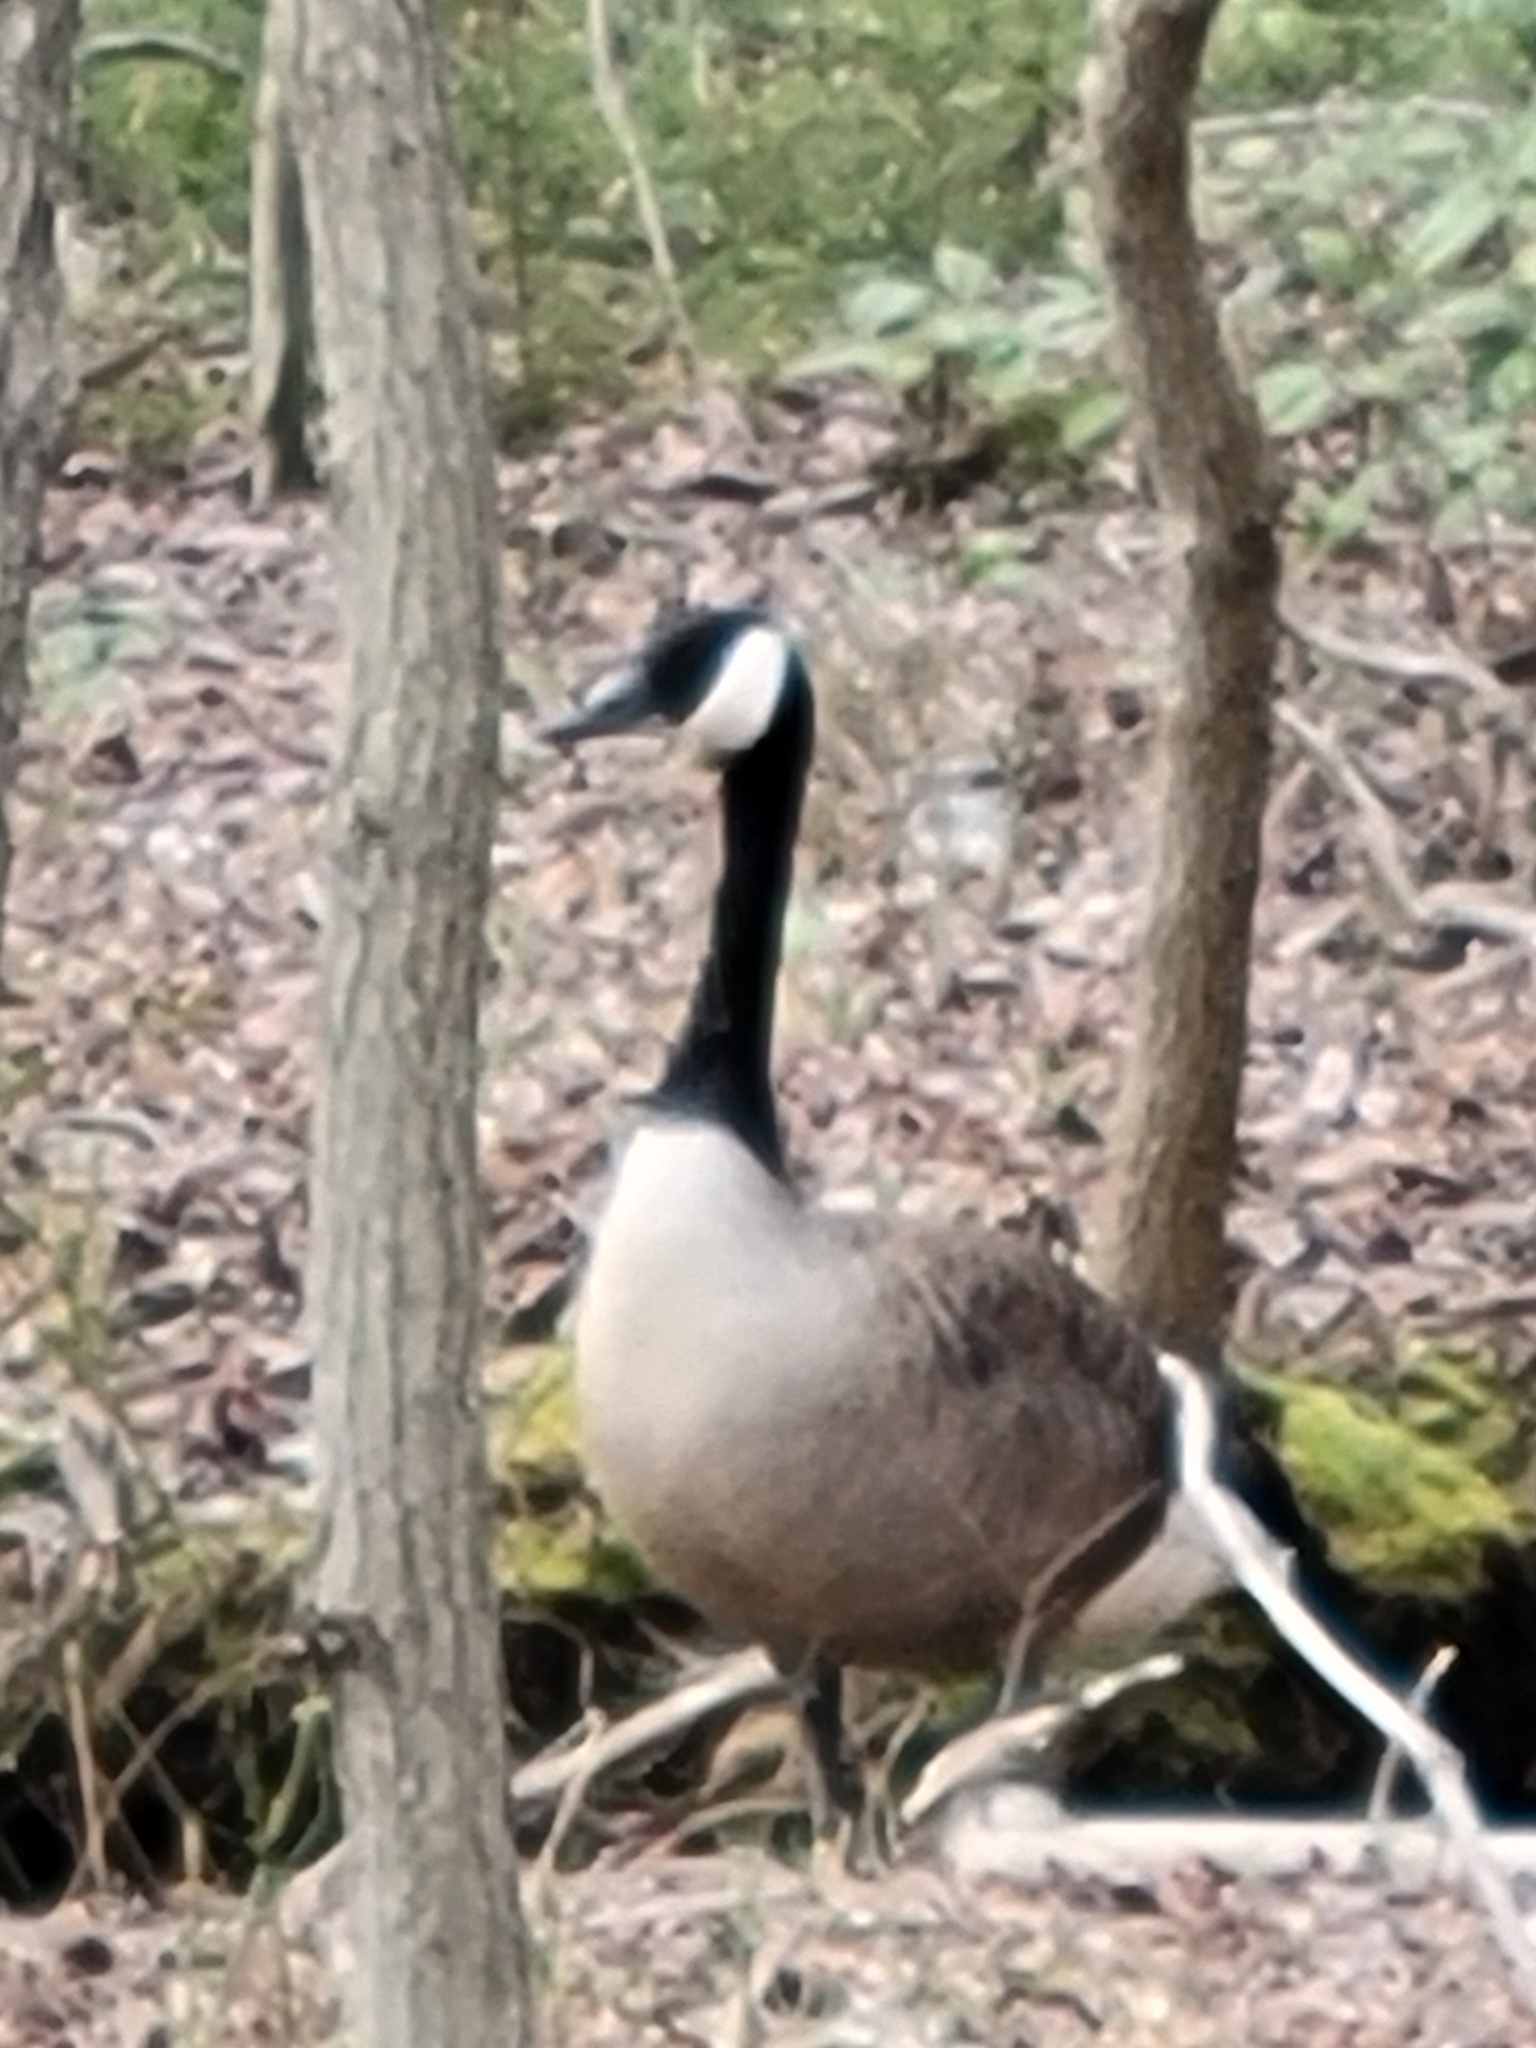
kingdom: Animalia
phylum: Chordata
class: Aves
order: Anseriformes
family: Anatidae
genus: Branta
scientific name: Branta canadensis
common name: Canada goose
